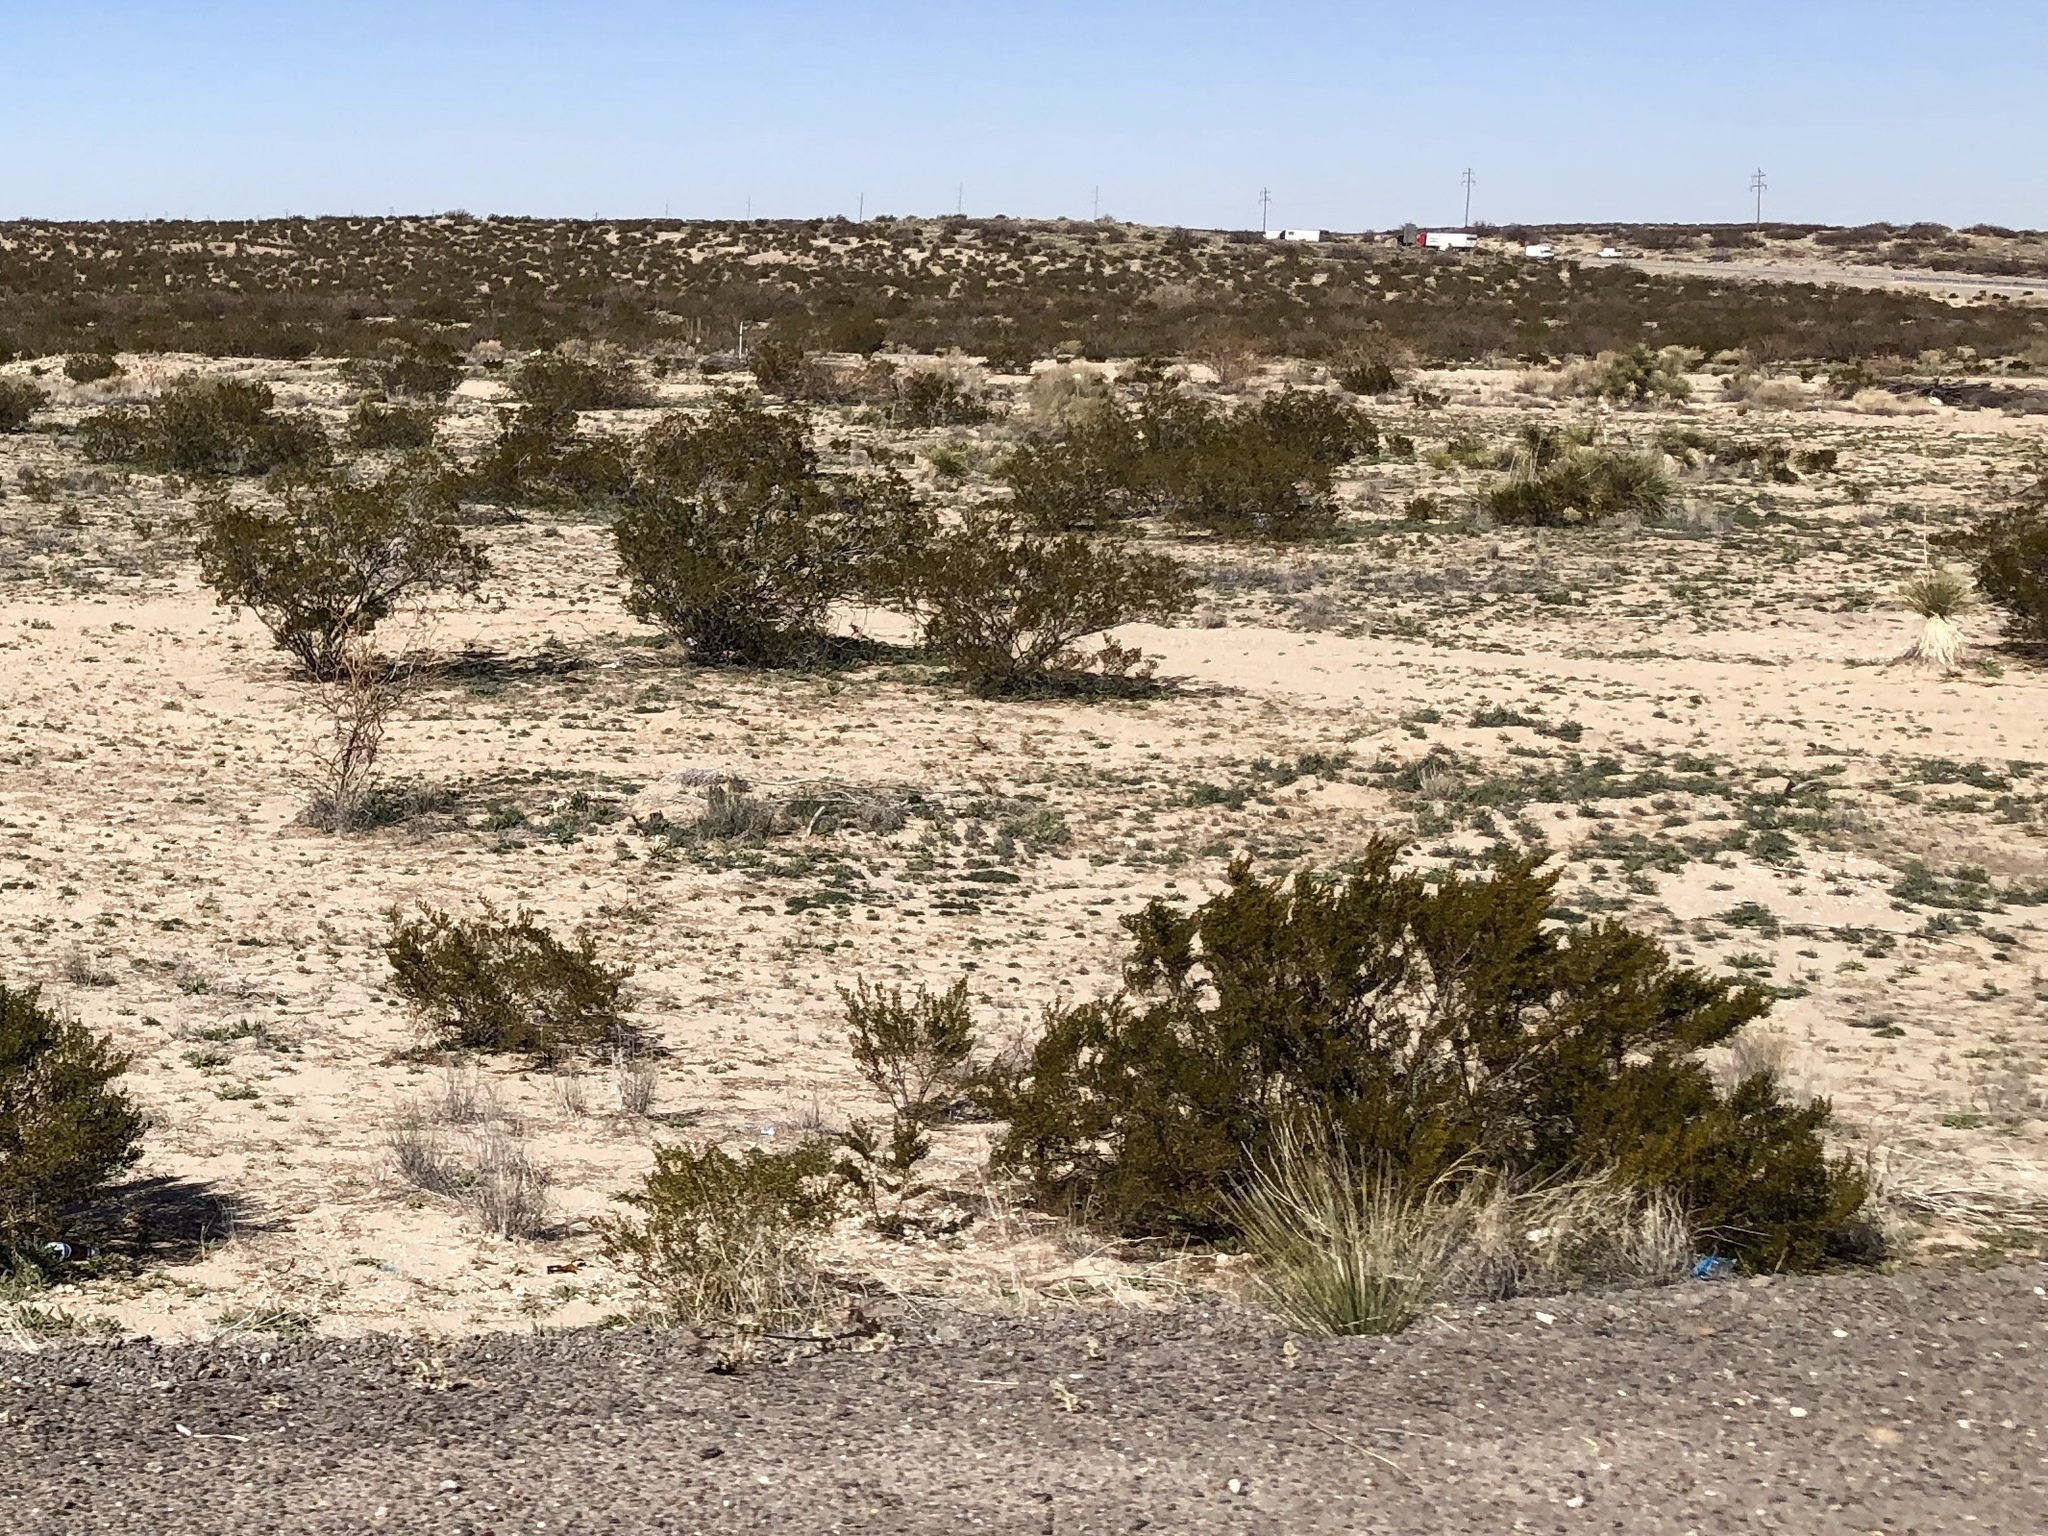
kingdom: Plantae
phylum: Tracheophyta
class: Magnoliopsida
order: Zygophyllales
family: Zygophyllaceae
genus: Larrea
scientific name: Larrea tridentata
